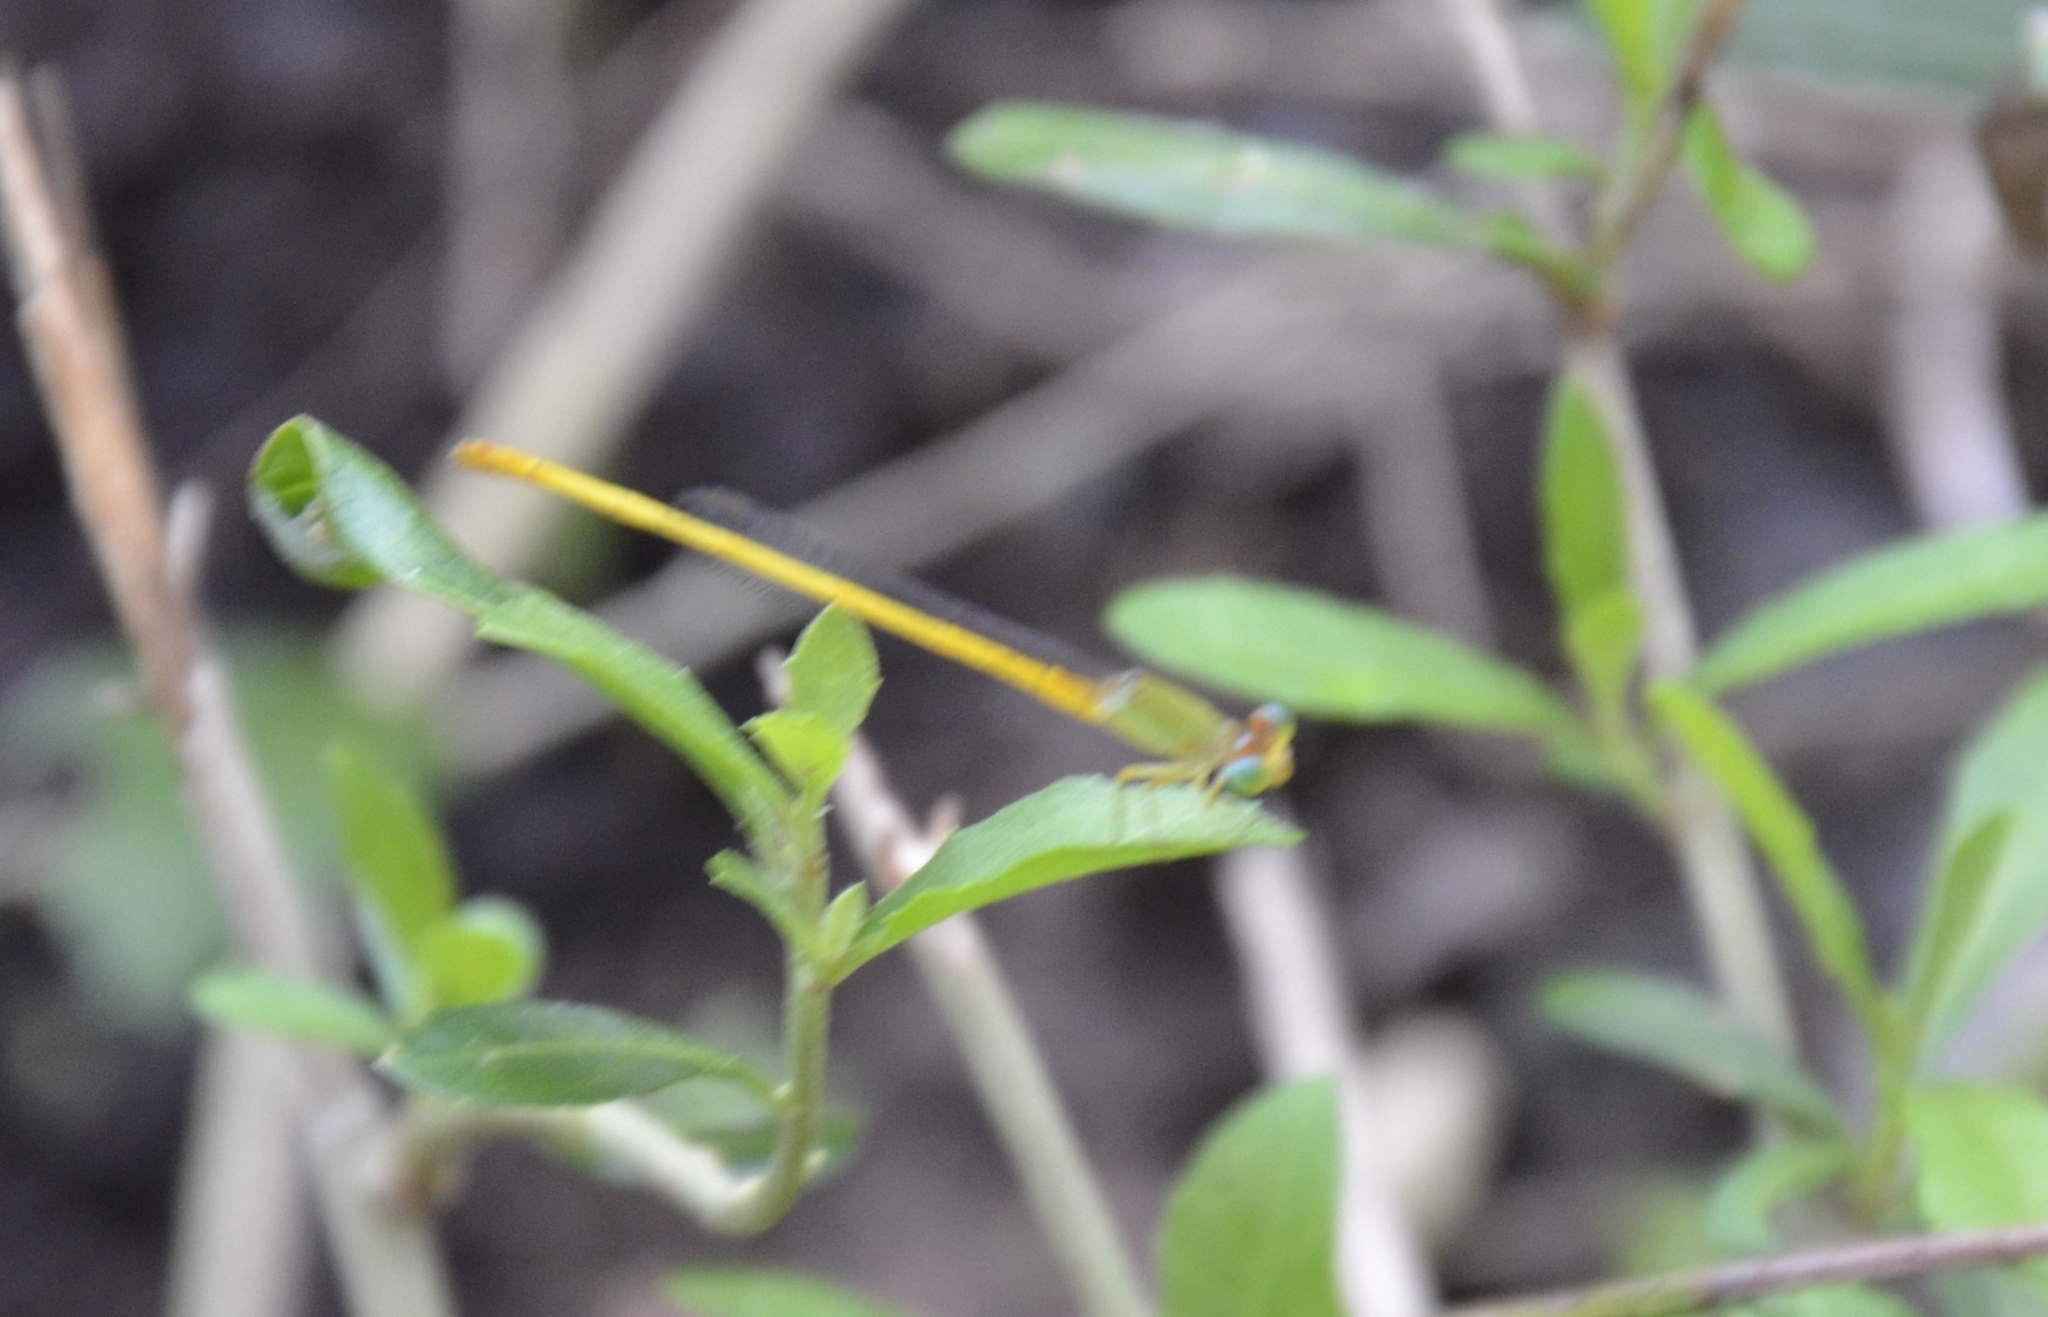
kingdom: Animalia
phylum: Arthropoda
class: Insecta
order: Odonata
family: Coenagrionidae
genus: Ceriagrion
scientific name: Ceriagrion coromandelianum
